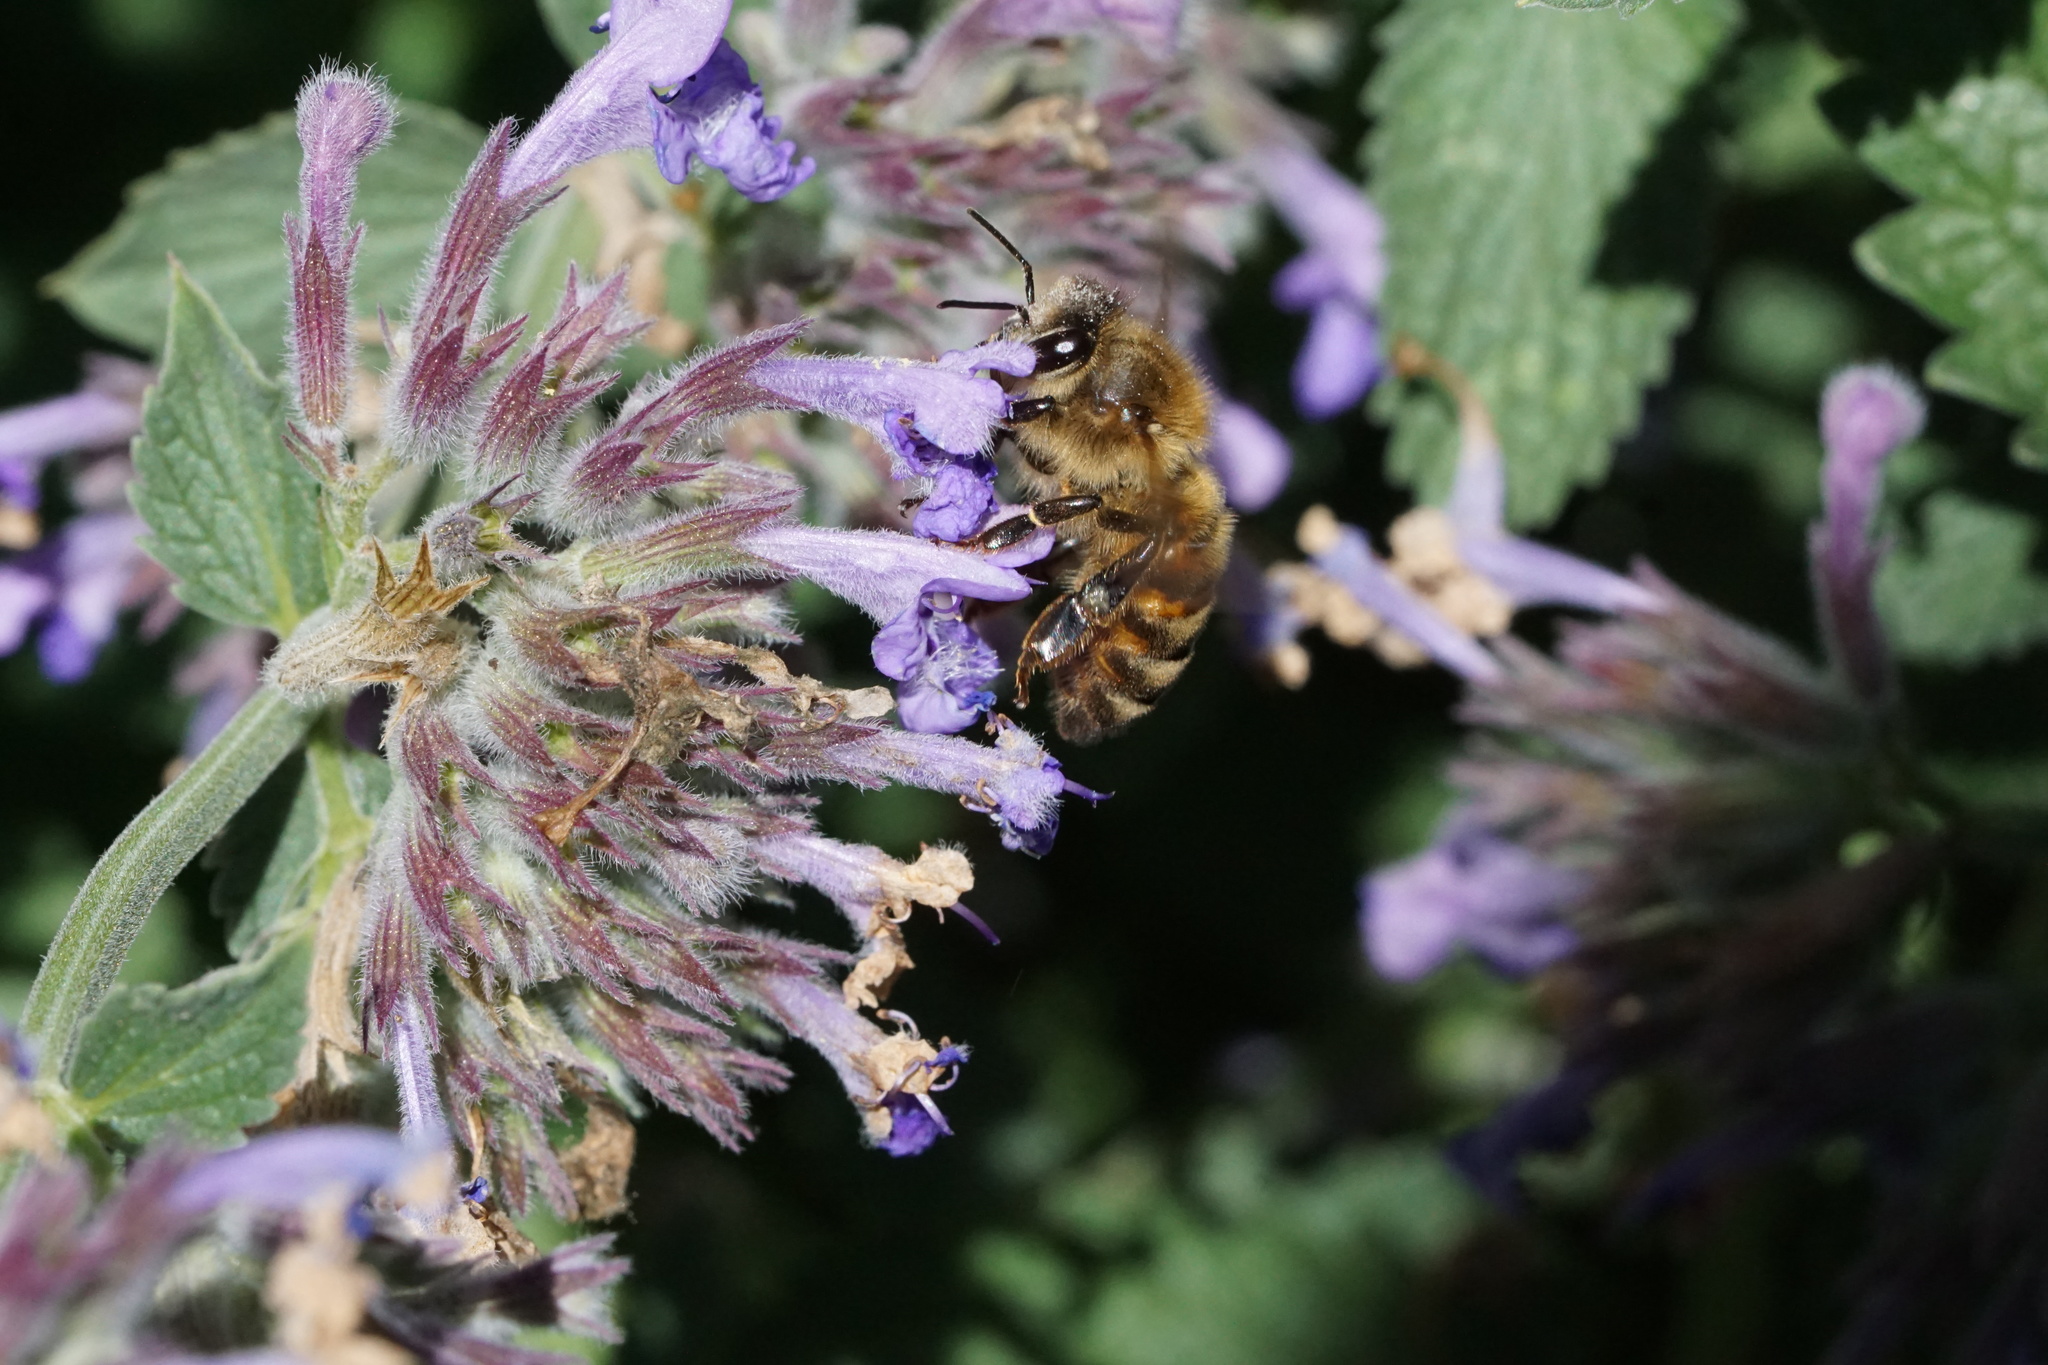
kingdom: Animalia
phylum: Arthropoda
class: Insecta
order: Hymenoptera
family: Apidae
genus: Apis
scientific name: Apis mellifera
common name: Honey bee
